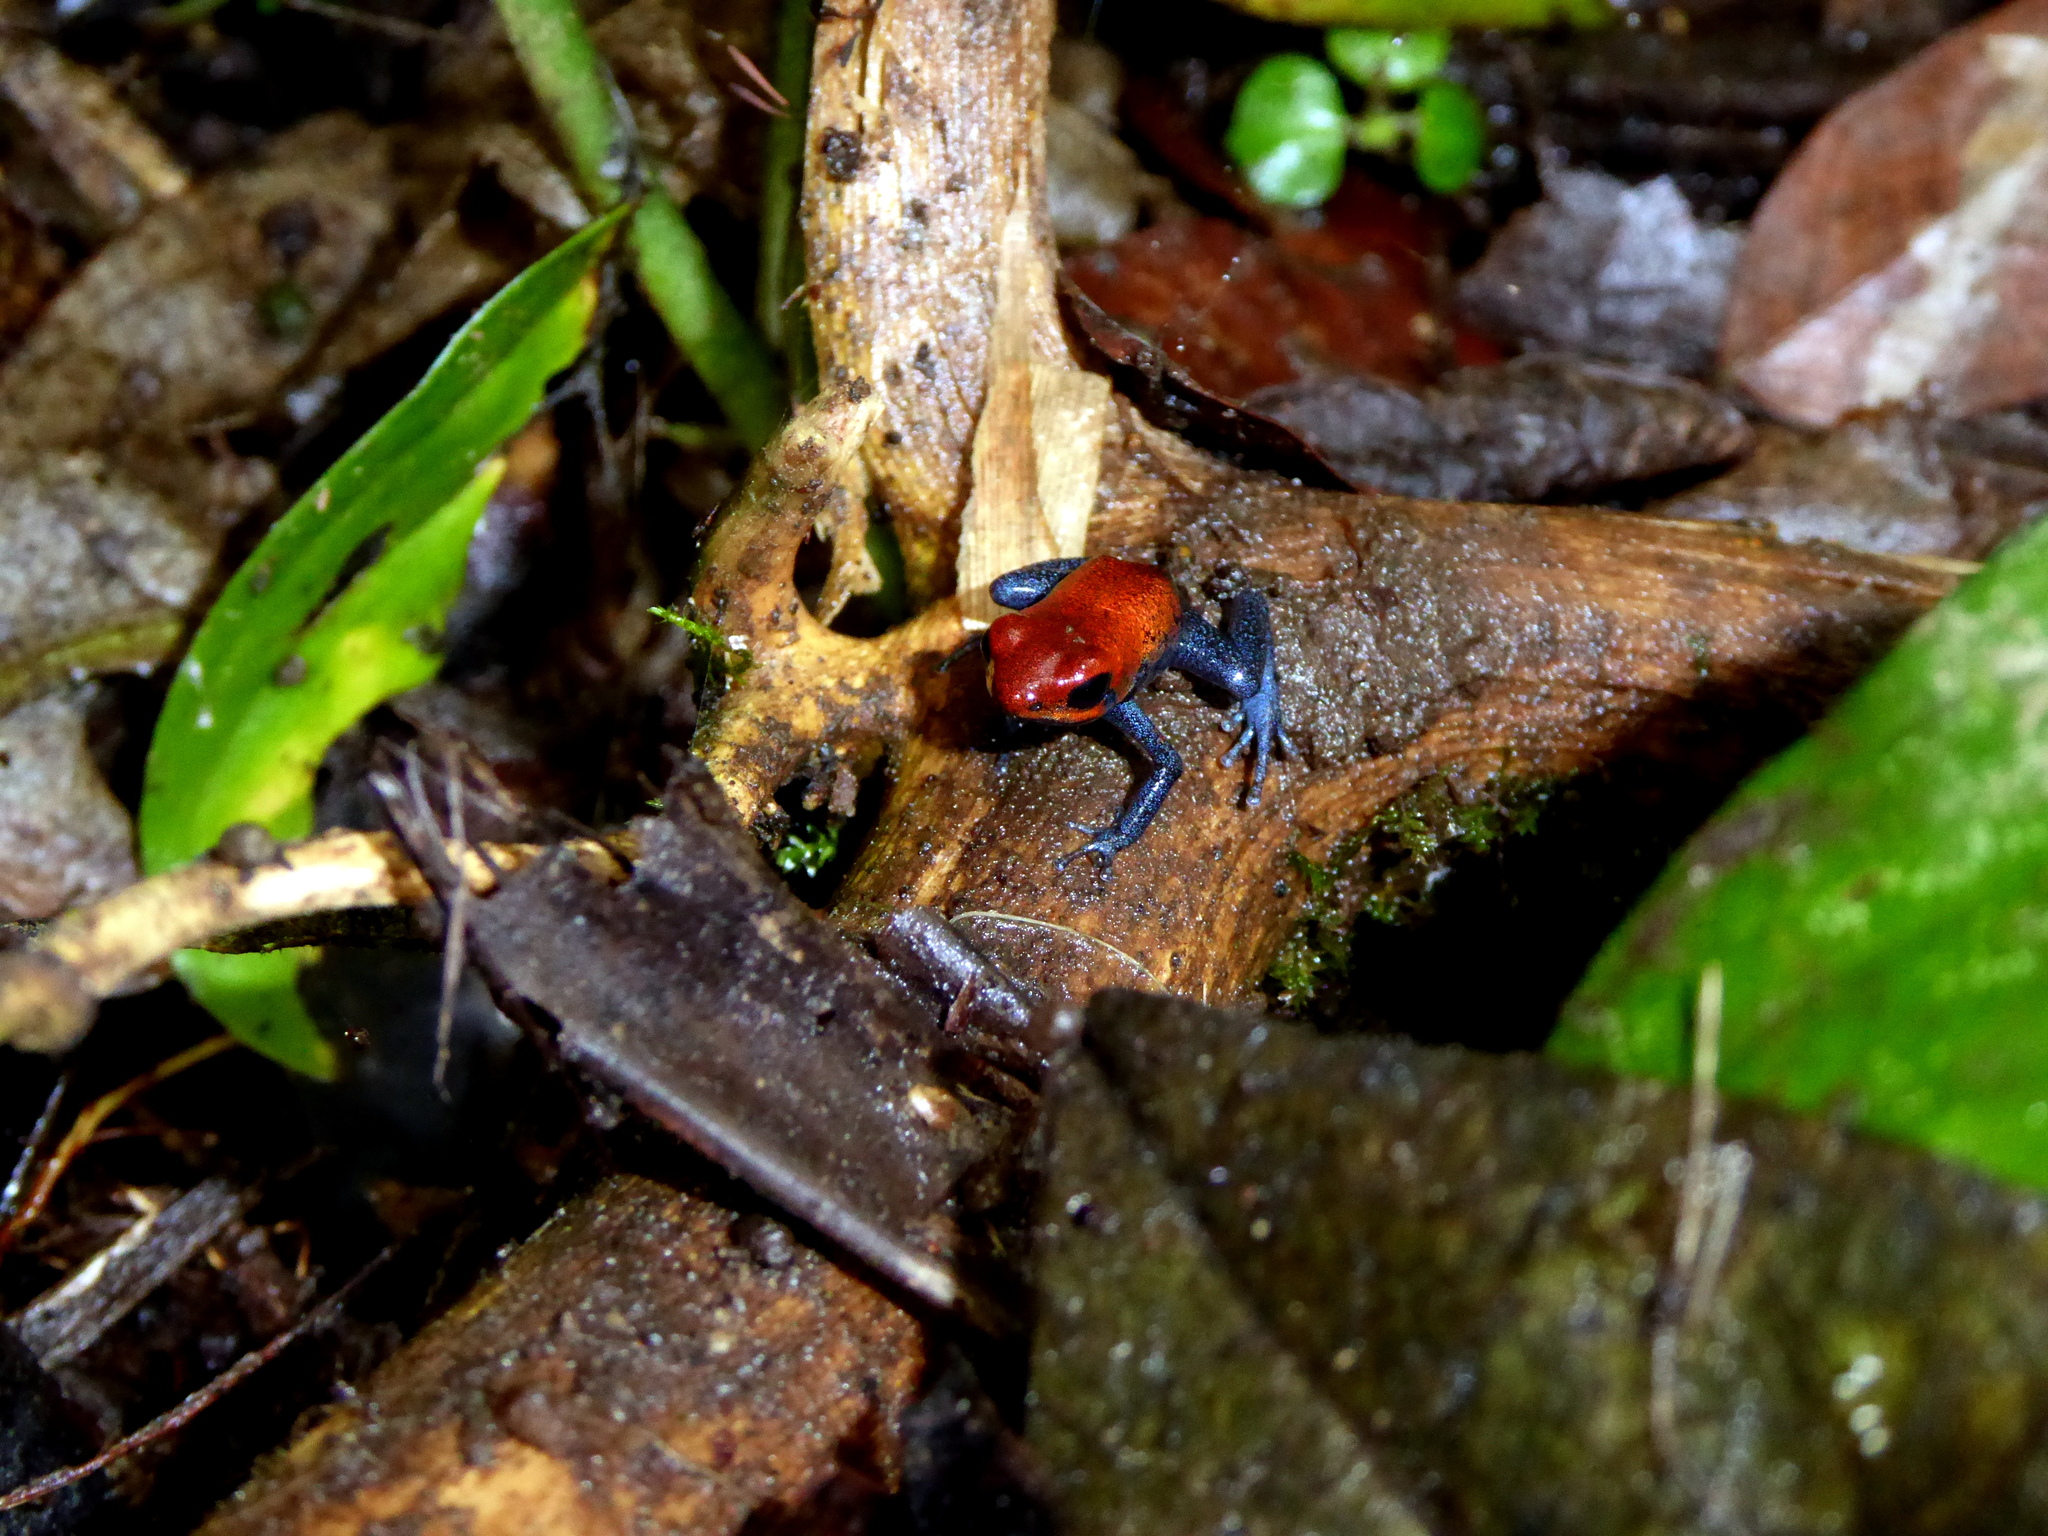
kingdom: Animalia
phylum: Chordata
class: Amphibia
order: Anura
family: Dendrobatidae
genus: Oophaga
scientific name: Oophaga pumilio
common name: Flaming poison frog
